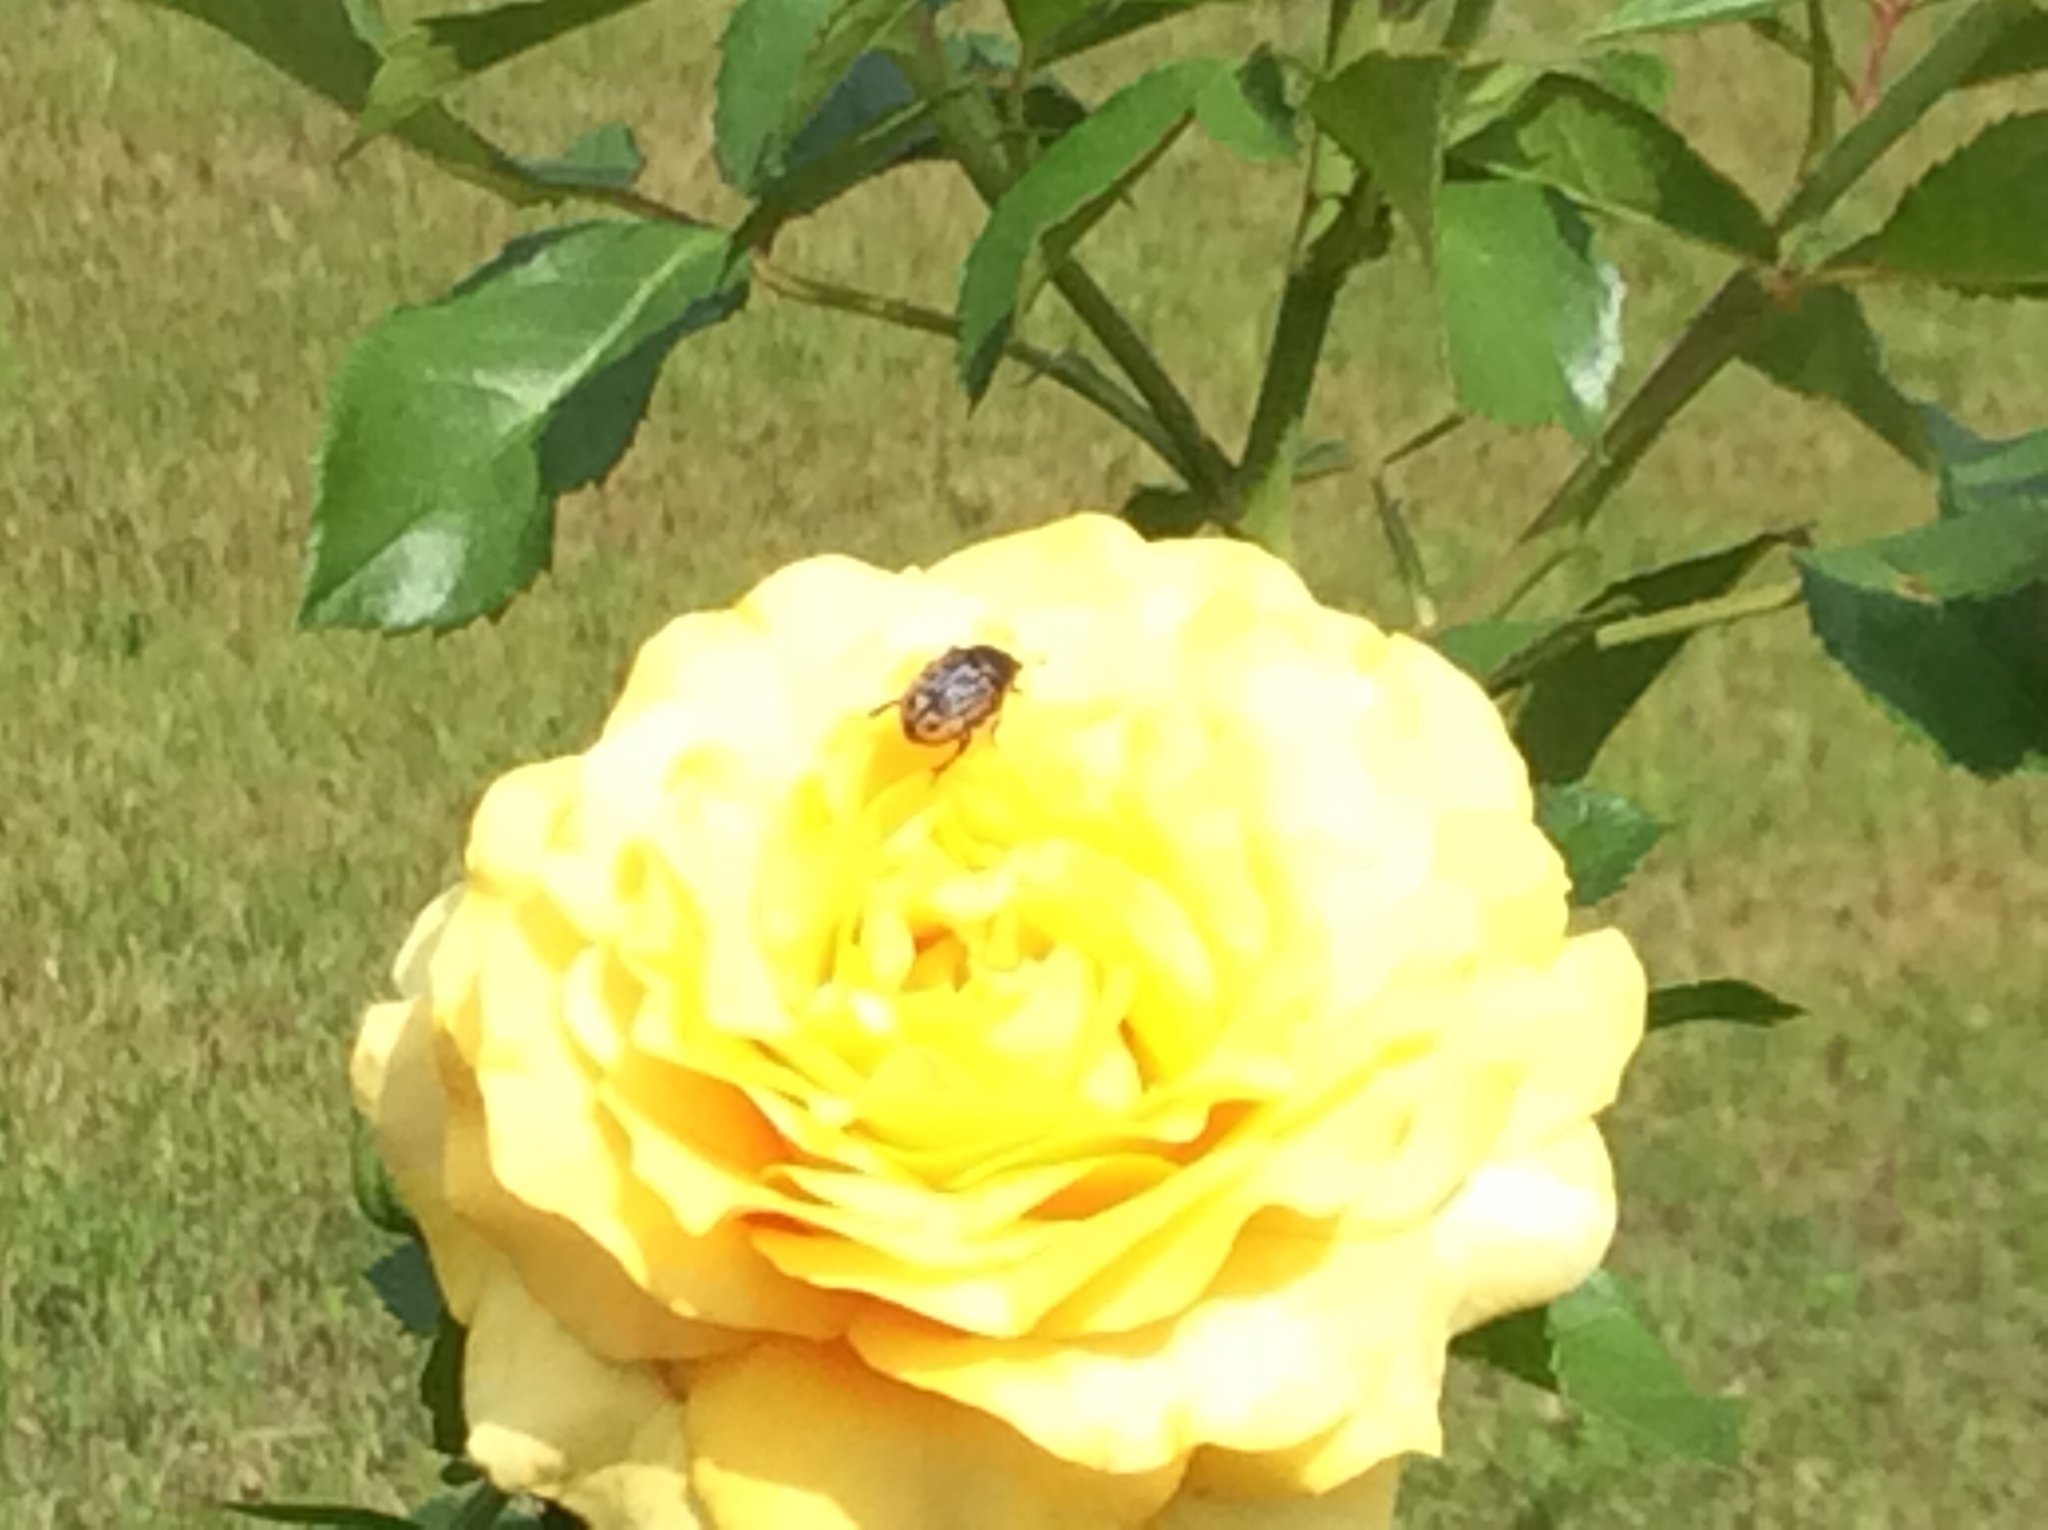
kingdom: Animalia
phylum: Arthropoda
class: Insecta
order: Coleoptera
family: Scarabaeidae
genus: Euphoria
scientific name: Euphoria kernii
